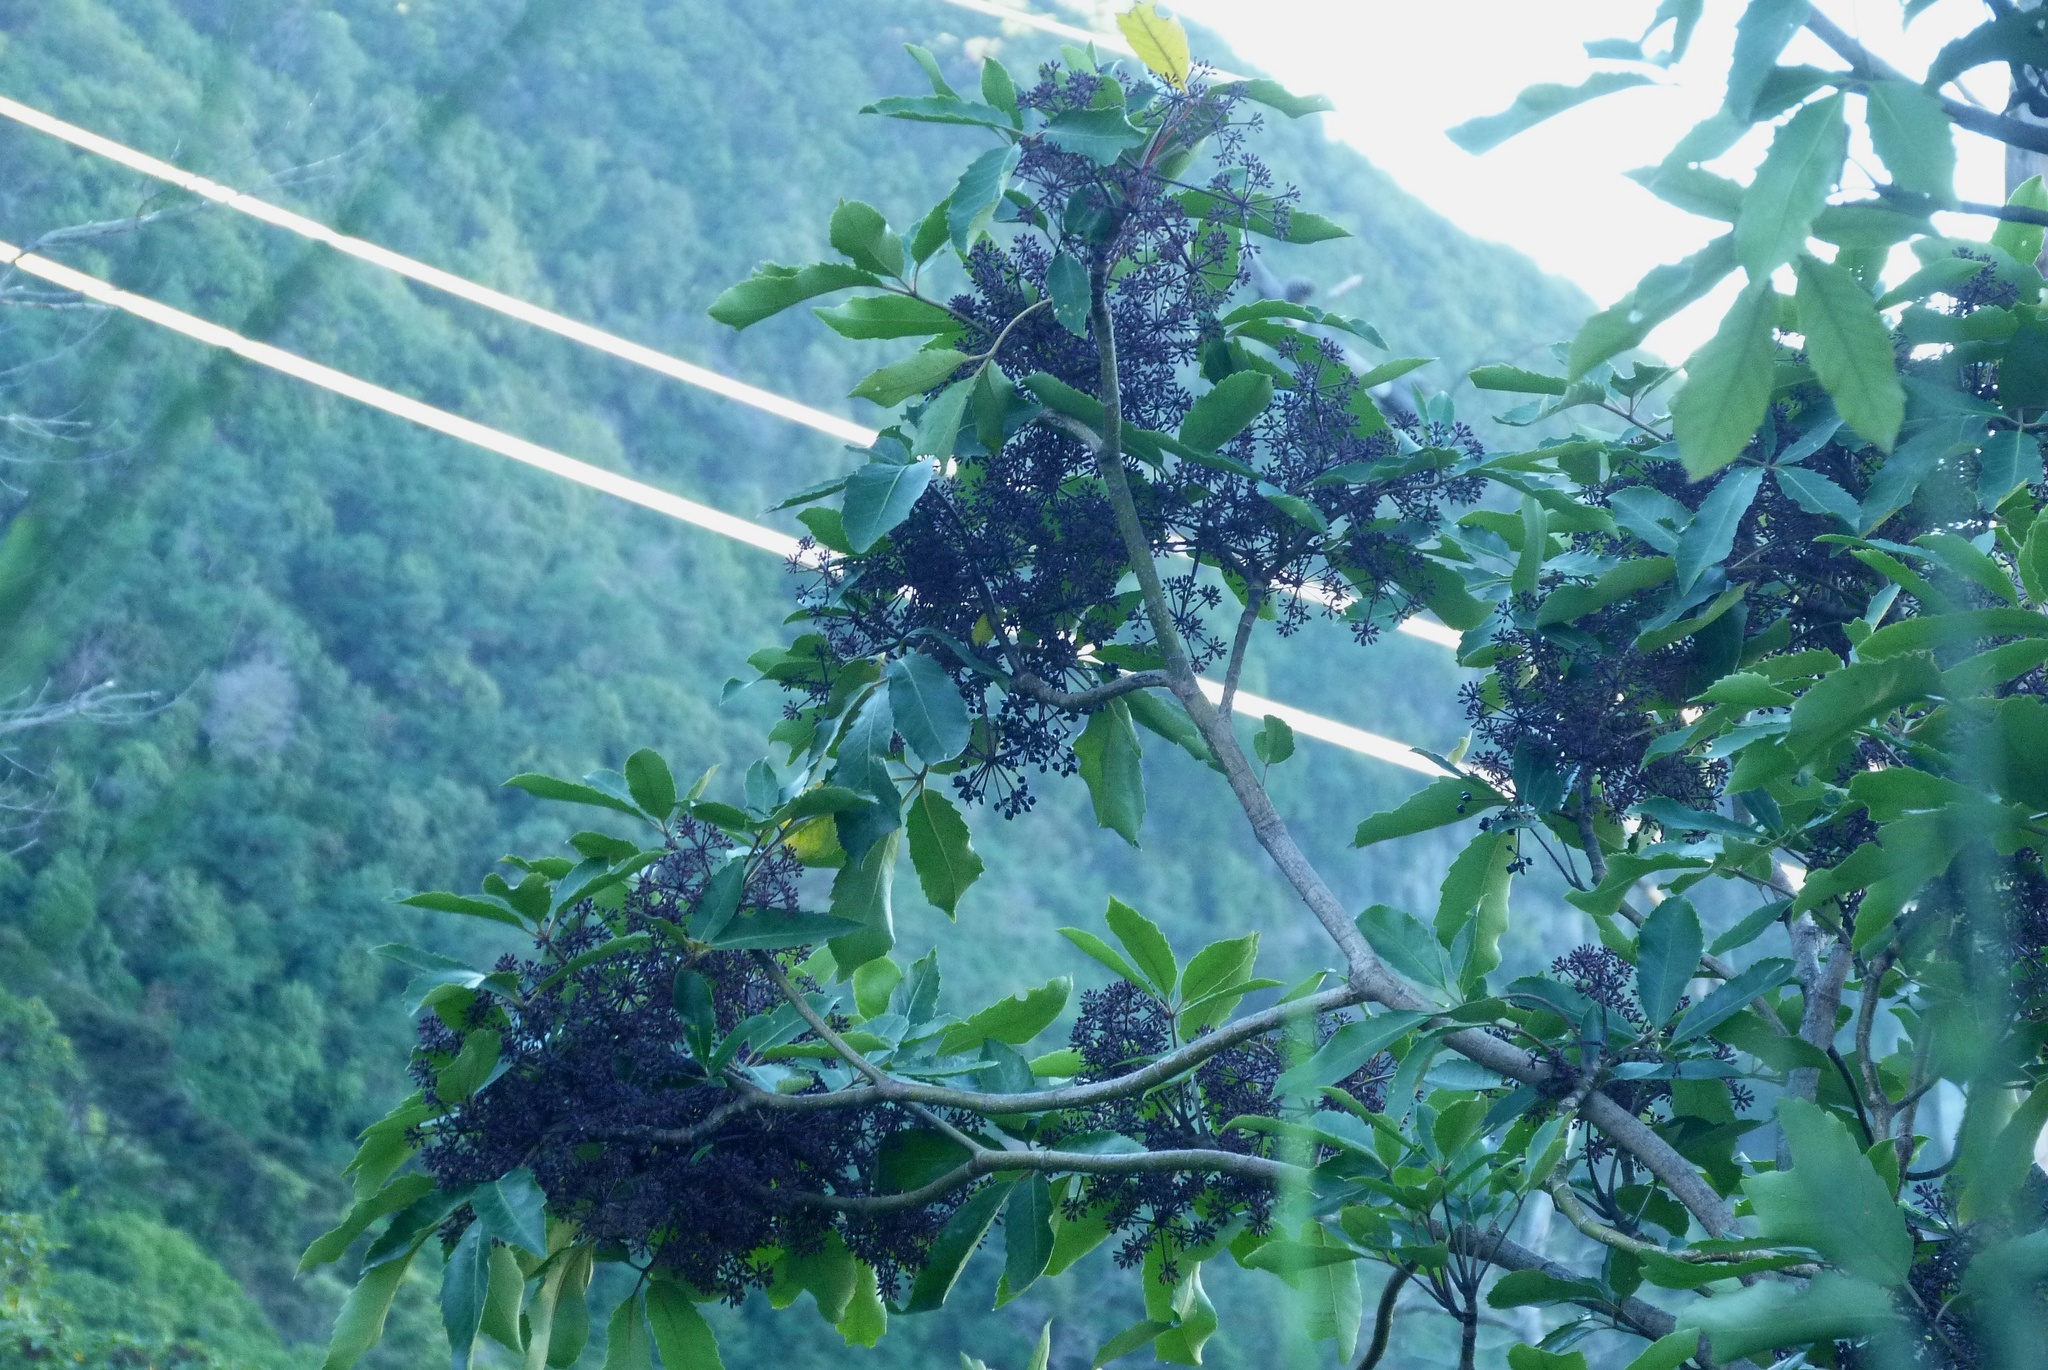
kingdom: Plantae
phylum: Tracheophyta
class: Magnoliopsida
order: Apiales
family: Araliaceae
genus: Neopanax
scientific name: Neopanax arboreus
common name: Five-fingers
